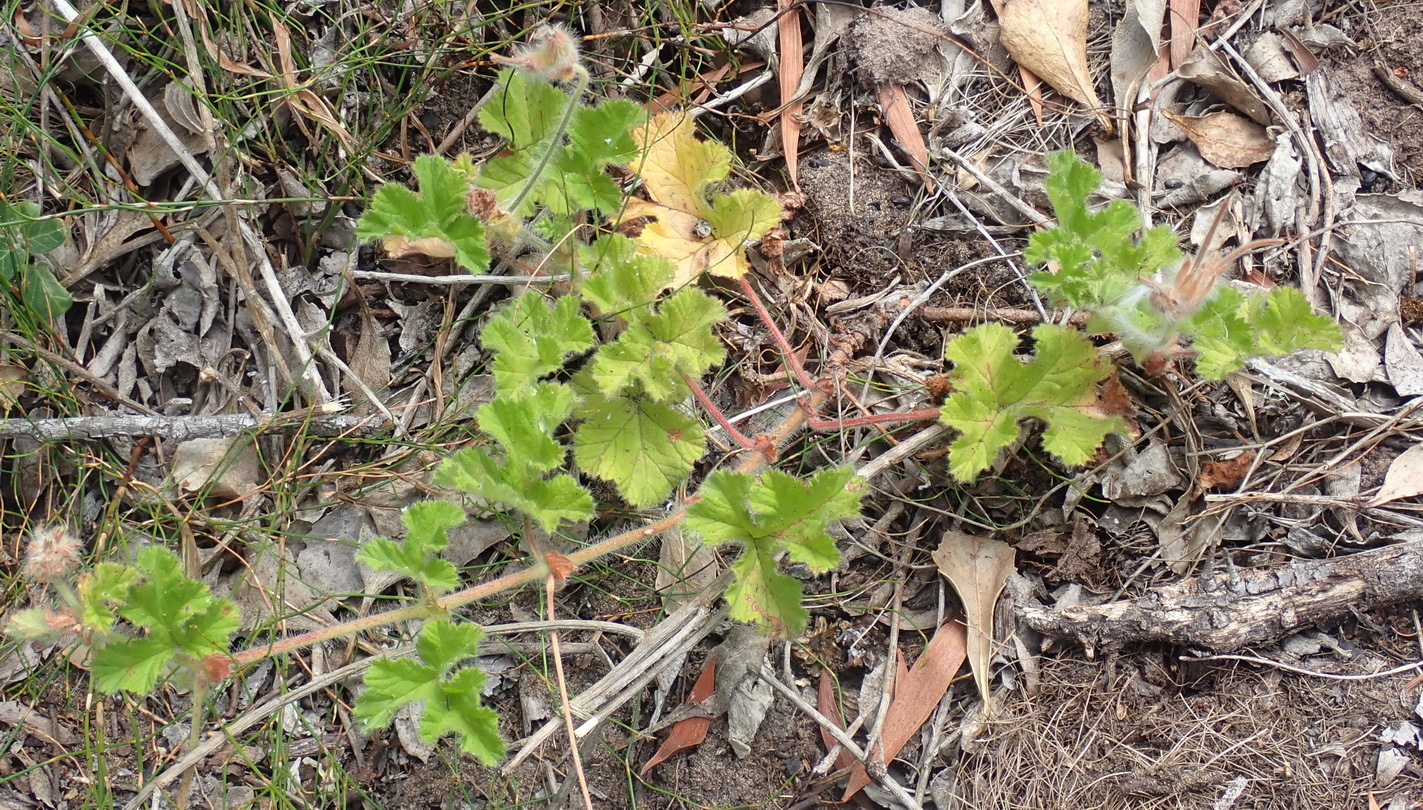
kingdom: Plantae
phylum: Tracheophyta
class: Magnoliopsida
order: Geraniales
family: Geraniaceae
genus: Pelargonium
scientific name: Pelargonium capitatum
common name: Rose scented geranium
